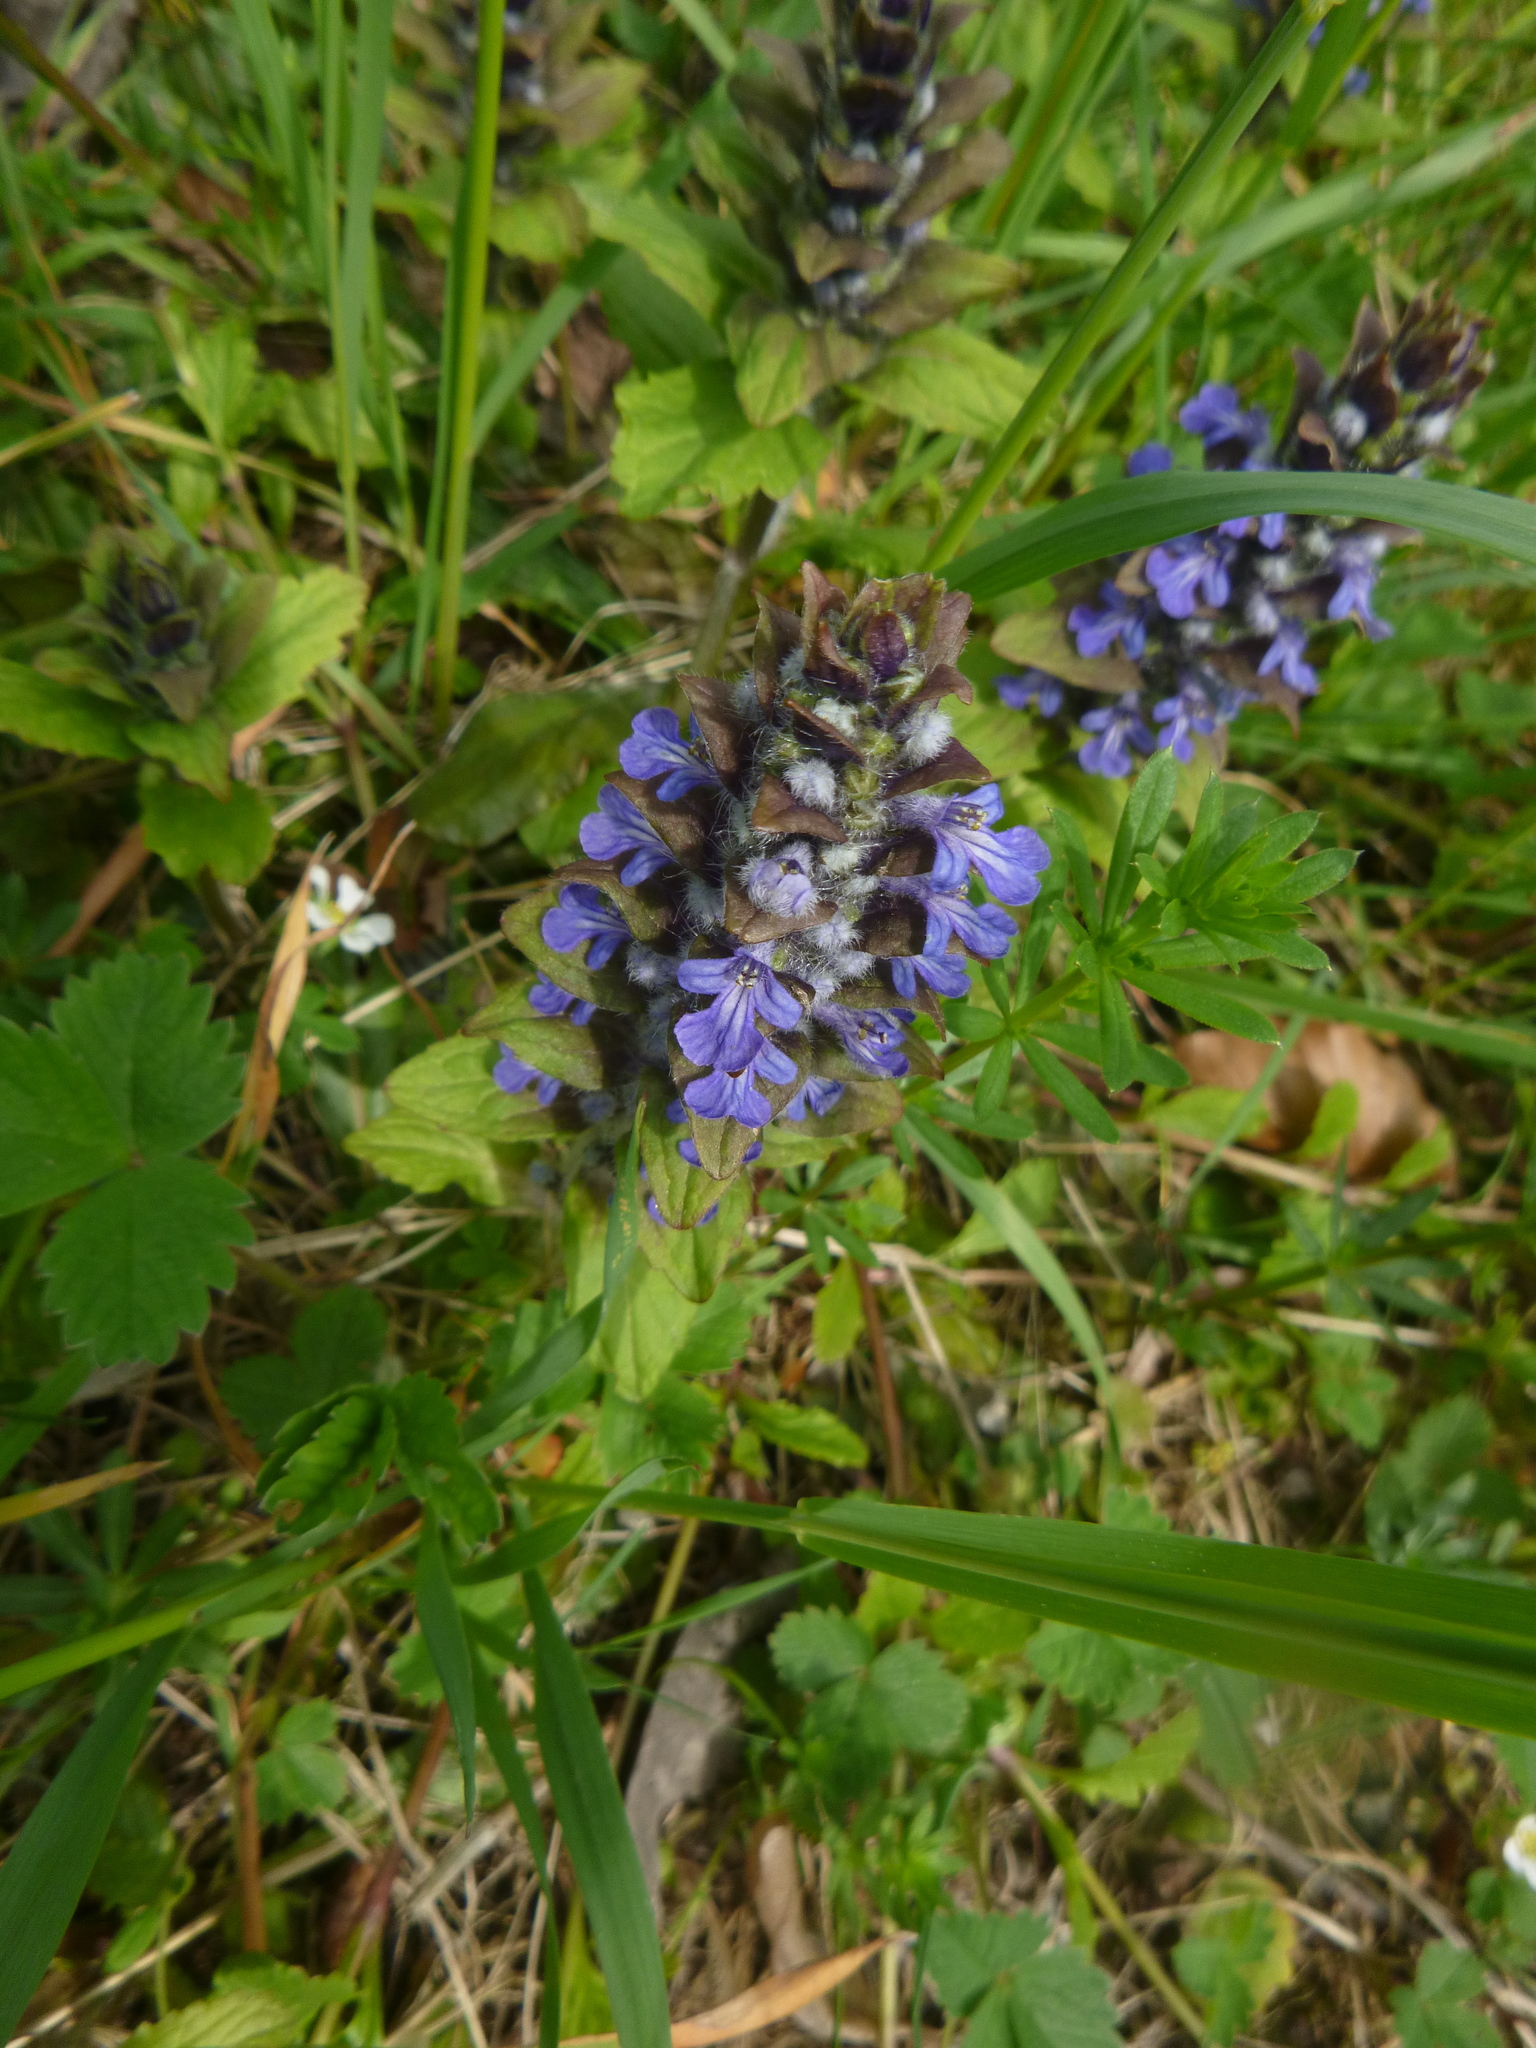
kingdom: Plantae
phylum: Tracheophyta
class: Magnoliopsida
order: Lamiales
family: Lamiaceae
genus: Ajuga
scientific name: Ajuga reptans
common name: Bugle
